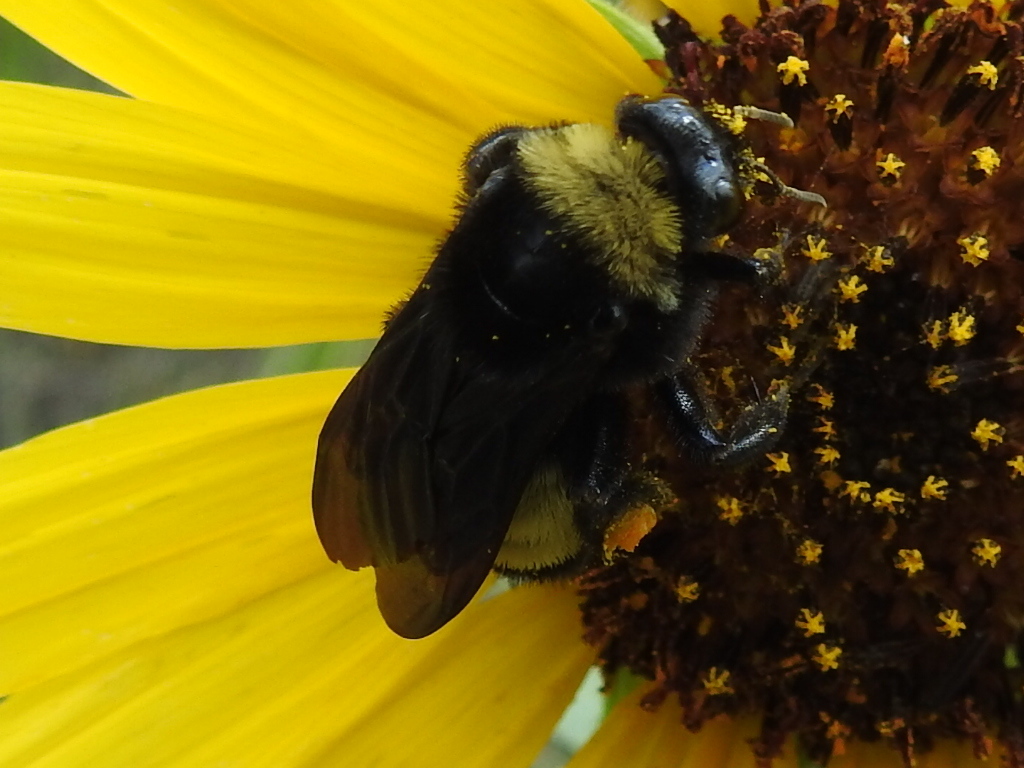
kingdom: Animalia
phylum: Arthropoda
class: Insecta
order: Hymenoptera
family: Apidae
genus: Bombus
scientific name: Bombus pensylvanicus
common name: Bumble bee
